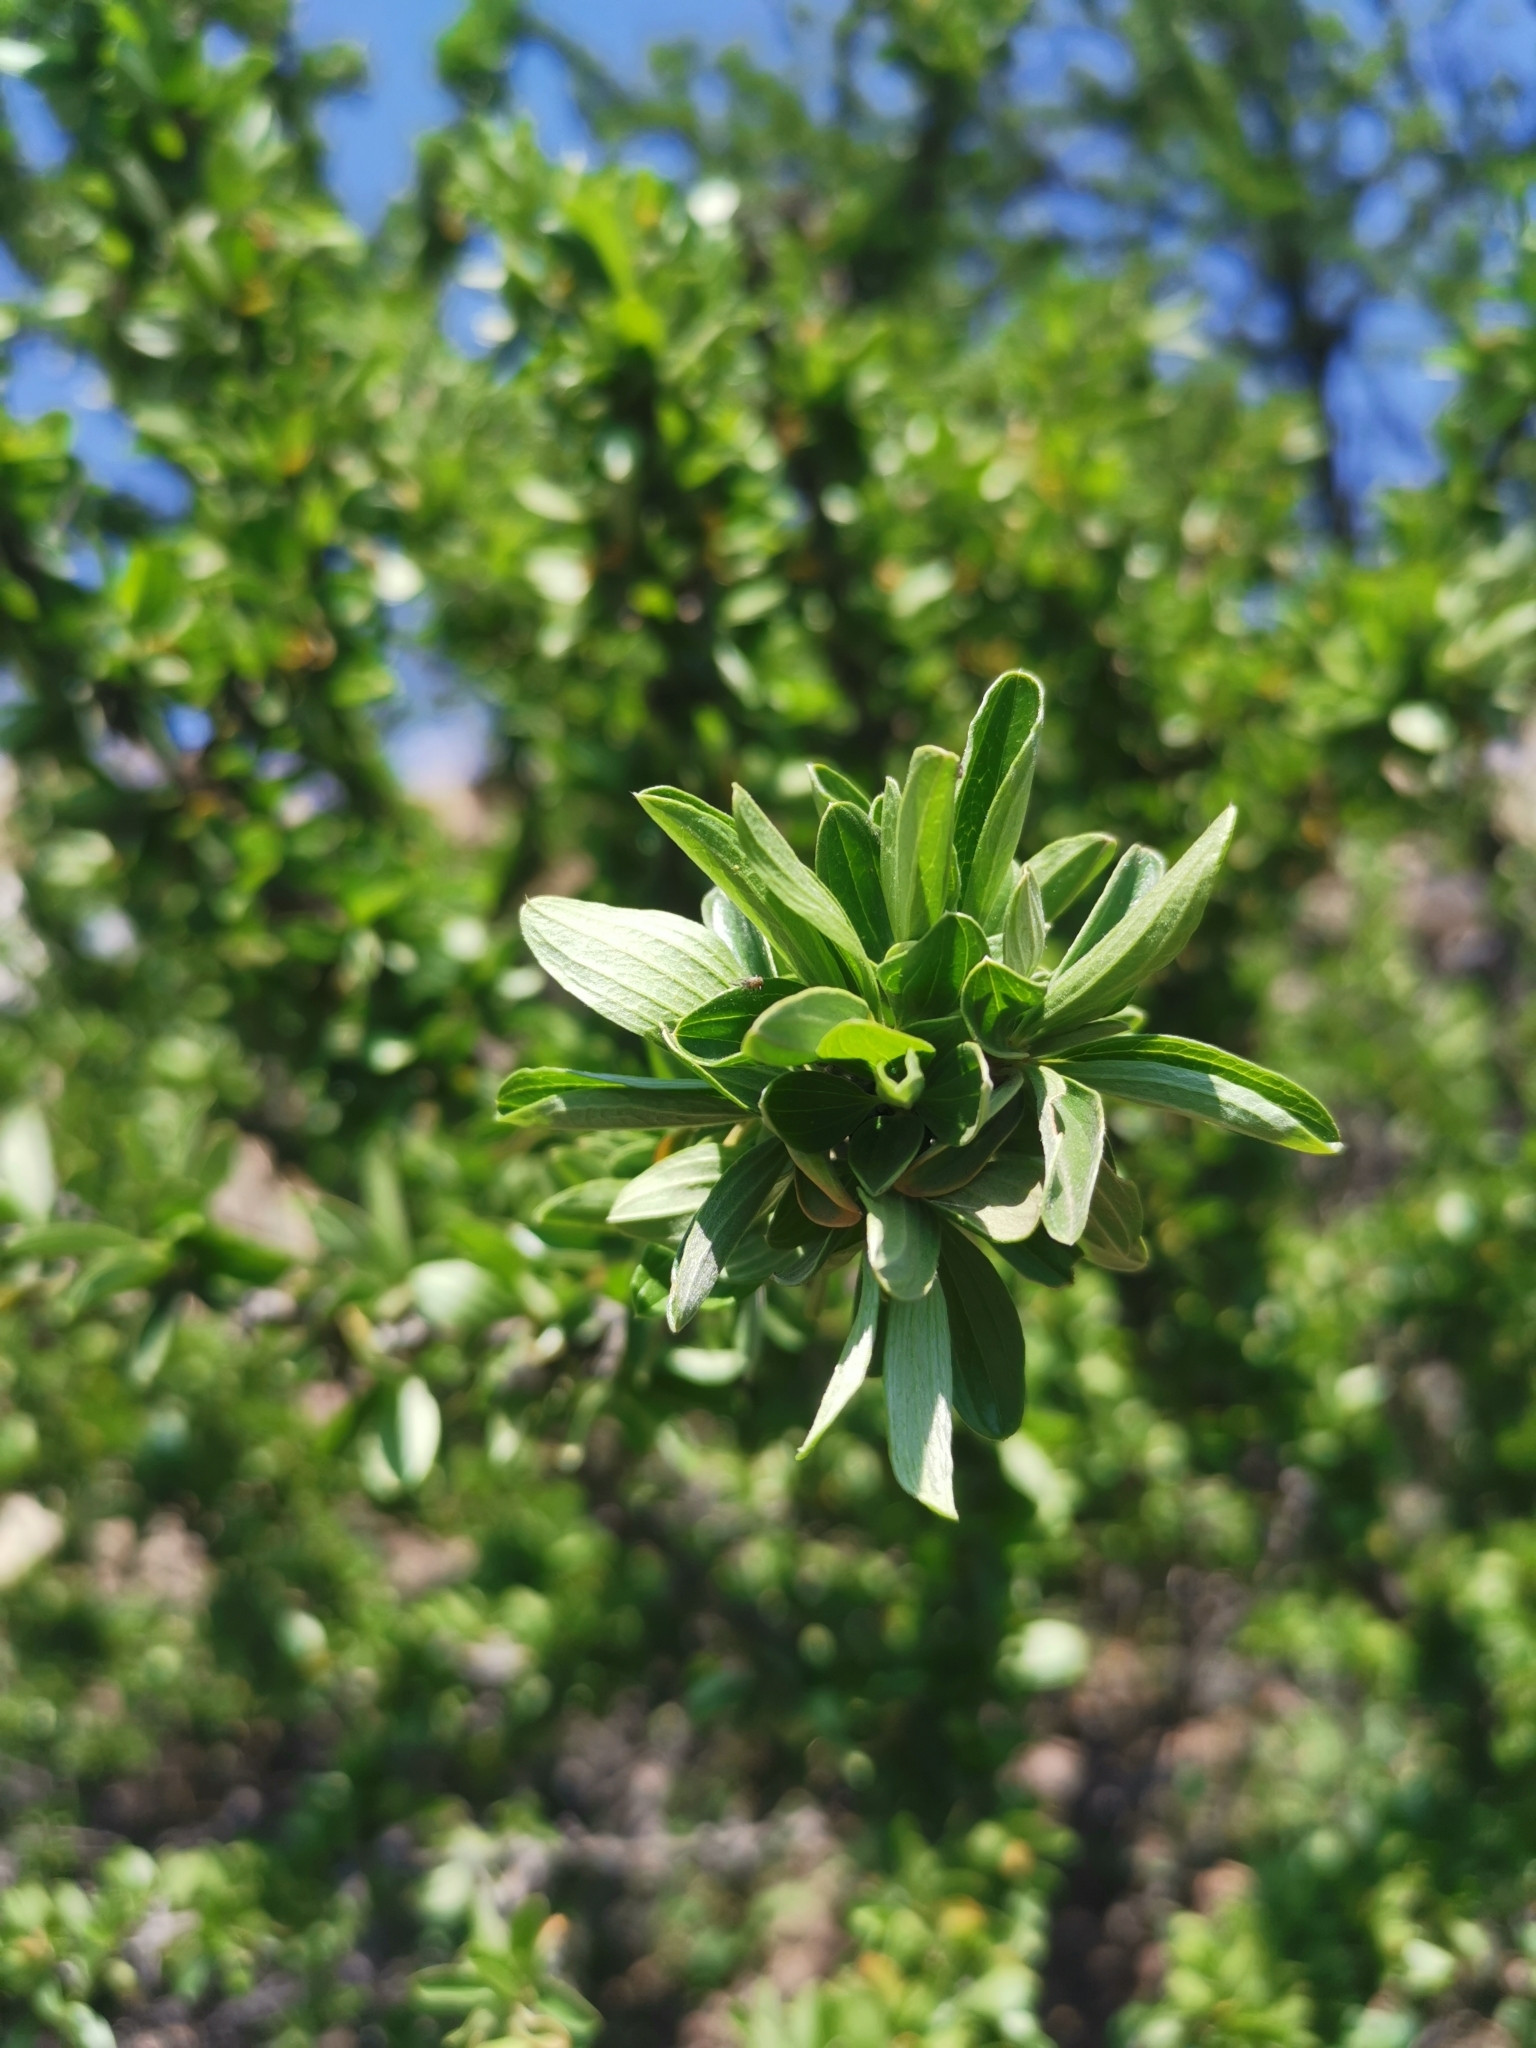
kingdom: Plantae
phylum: Tracheophyta
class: Magnoliopsida
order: Rosales
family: Rhamnaceae
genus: Trevoa
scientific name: Trevoa quinquenervia
